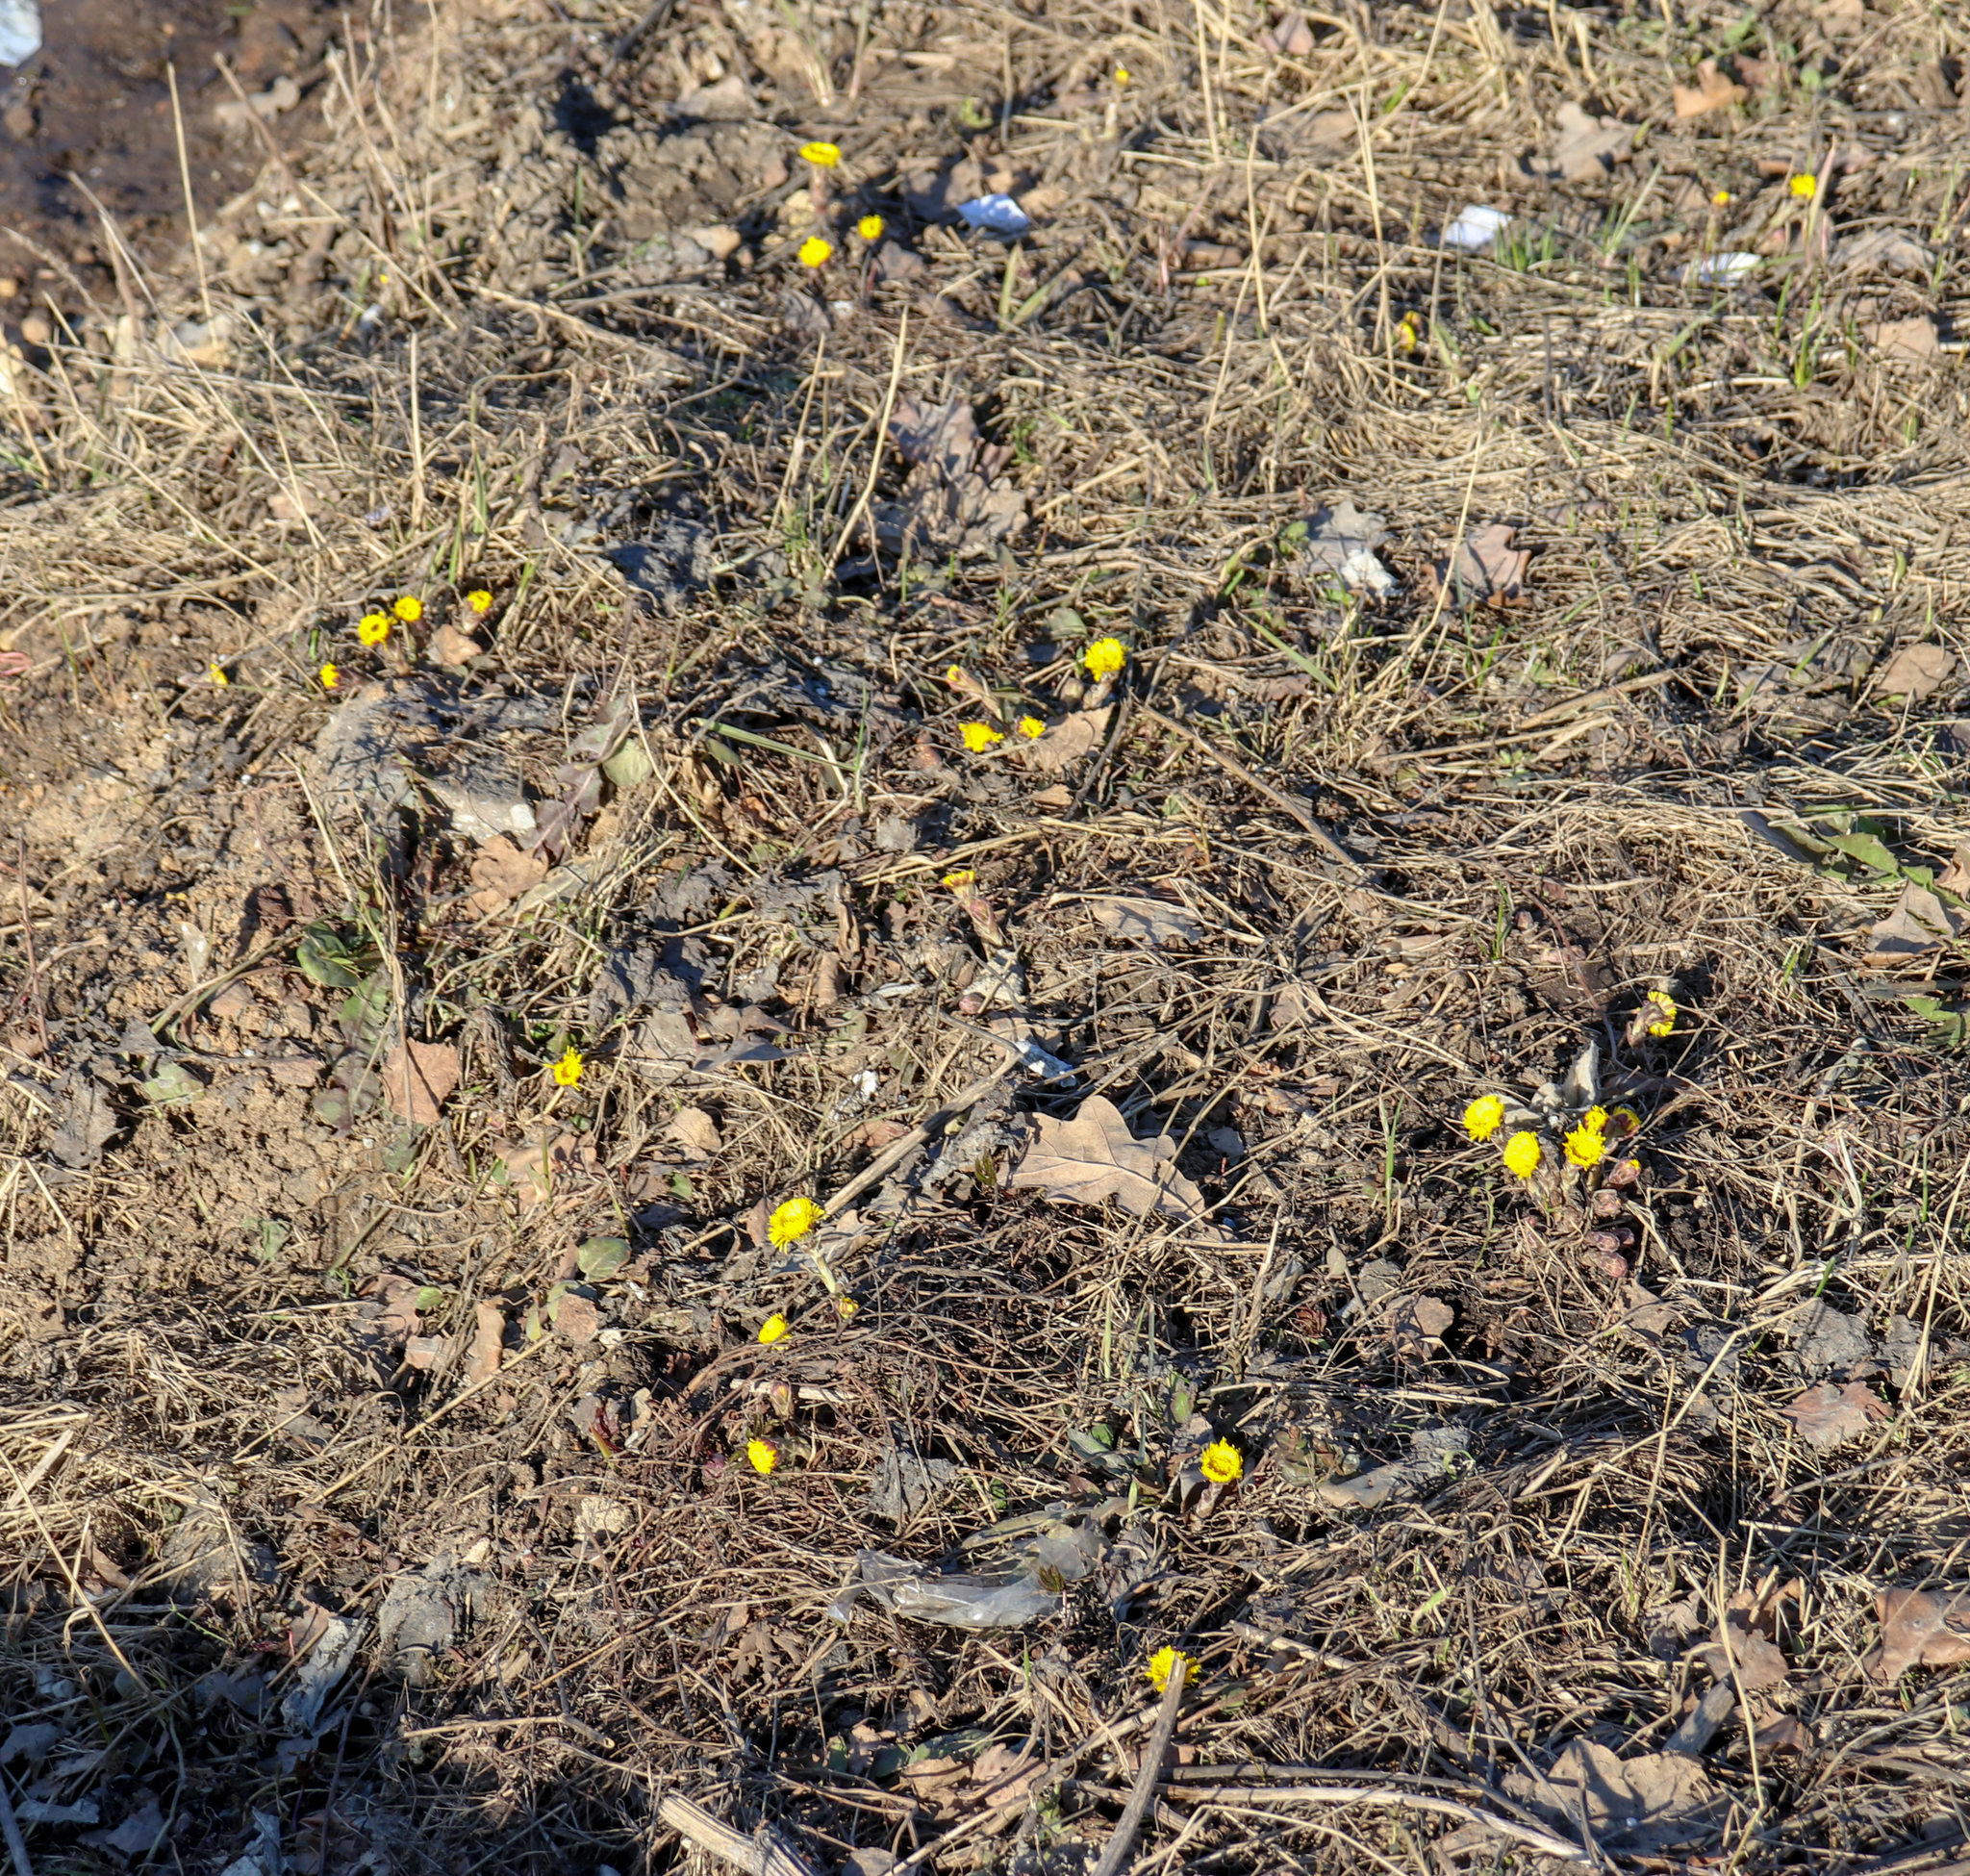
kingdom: Plantae
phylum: Tracheophyta
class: Magnoliopsida
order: Asterales
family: Asteraceae
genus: Tussilago
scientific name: Tussilago farfara
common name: Coltsfoot
